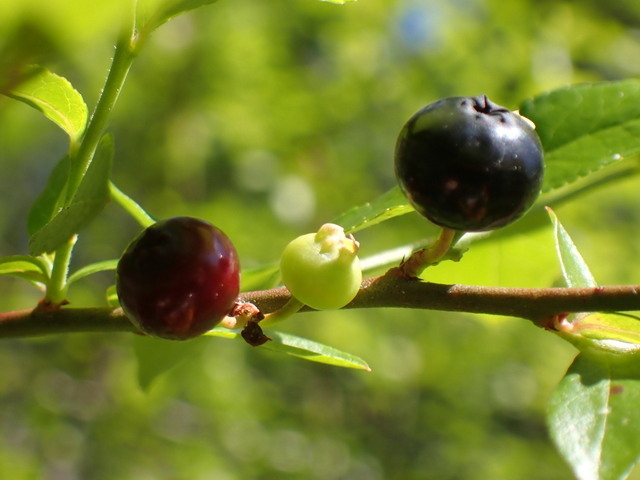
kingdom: Plantae
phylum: Tracheophyta
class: Magnoliopsida
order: Ericales
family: Ericaceae
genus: Vaccinium
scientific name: Vaccinium corymbosum
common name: Blueberry
